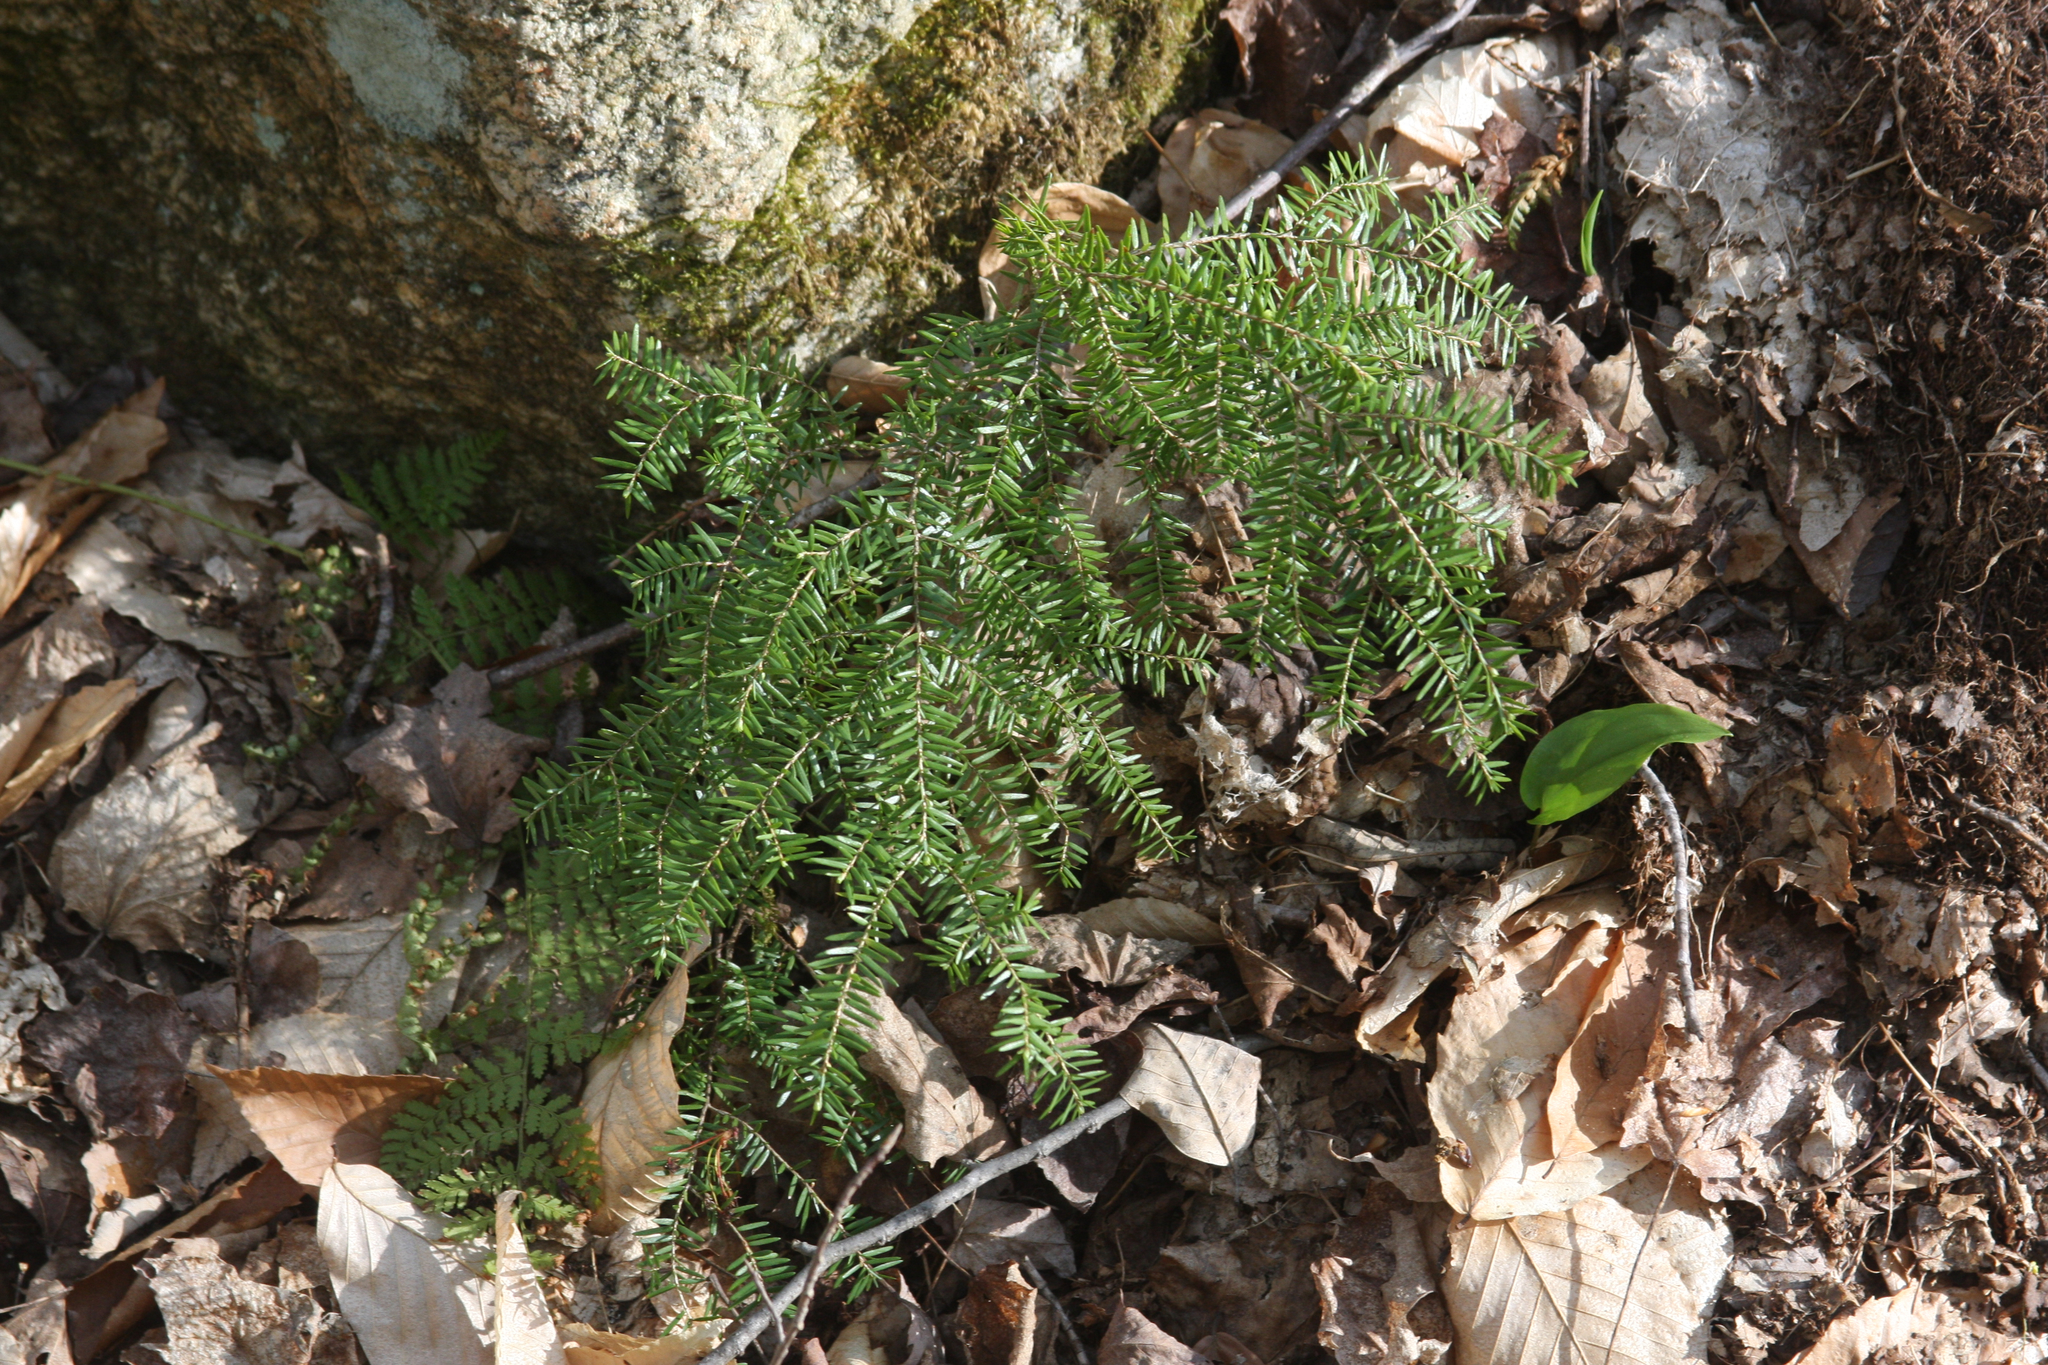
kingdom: Plantae
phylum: Tracheophyta
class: Pinopsida
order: Pinales
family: Pinaceae
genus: Tsuga
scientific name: Tsuga canadensis
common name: Eastern hemlock
